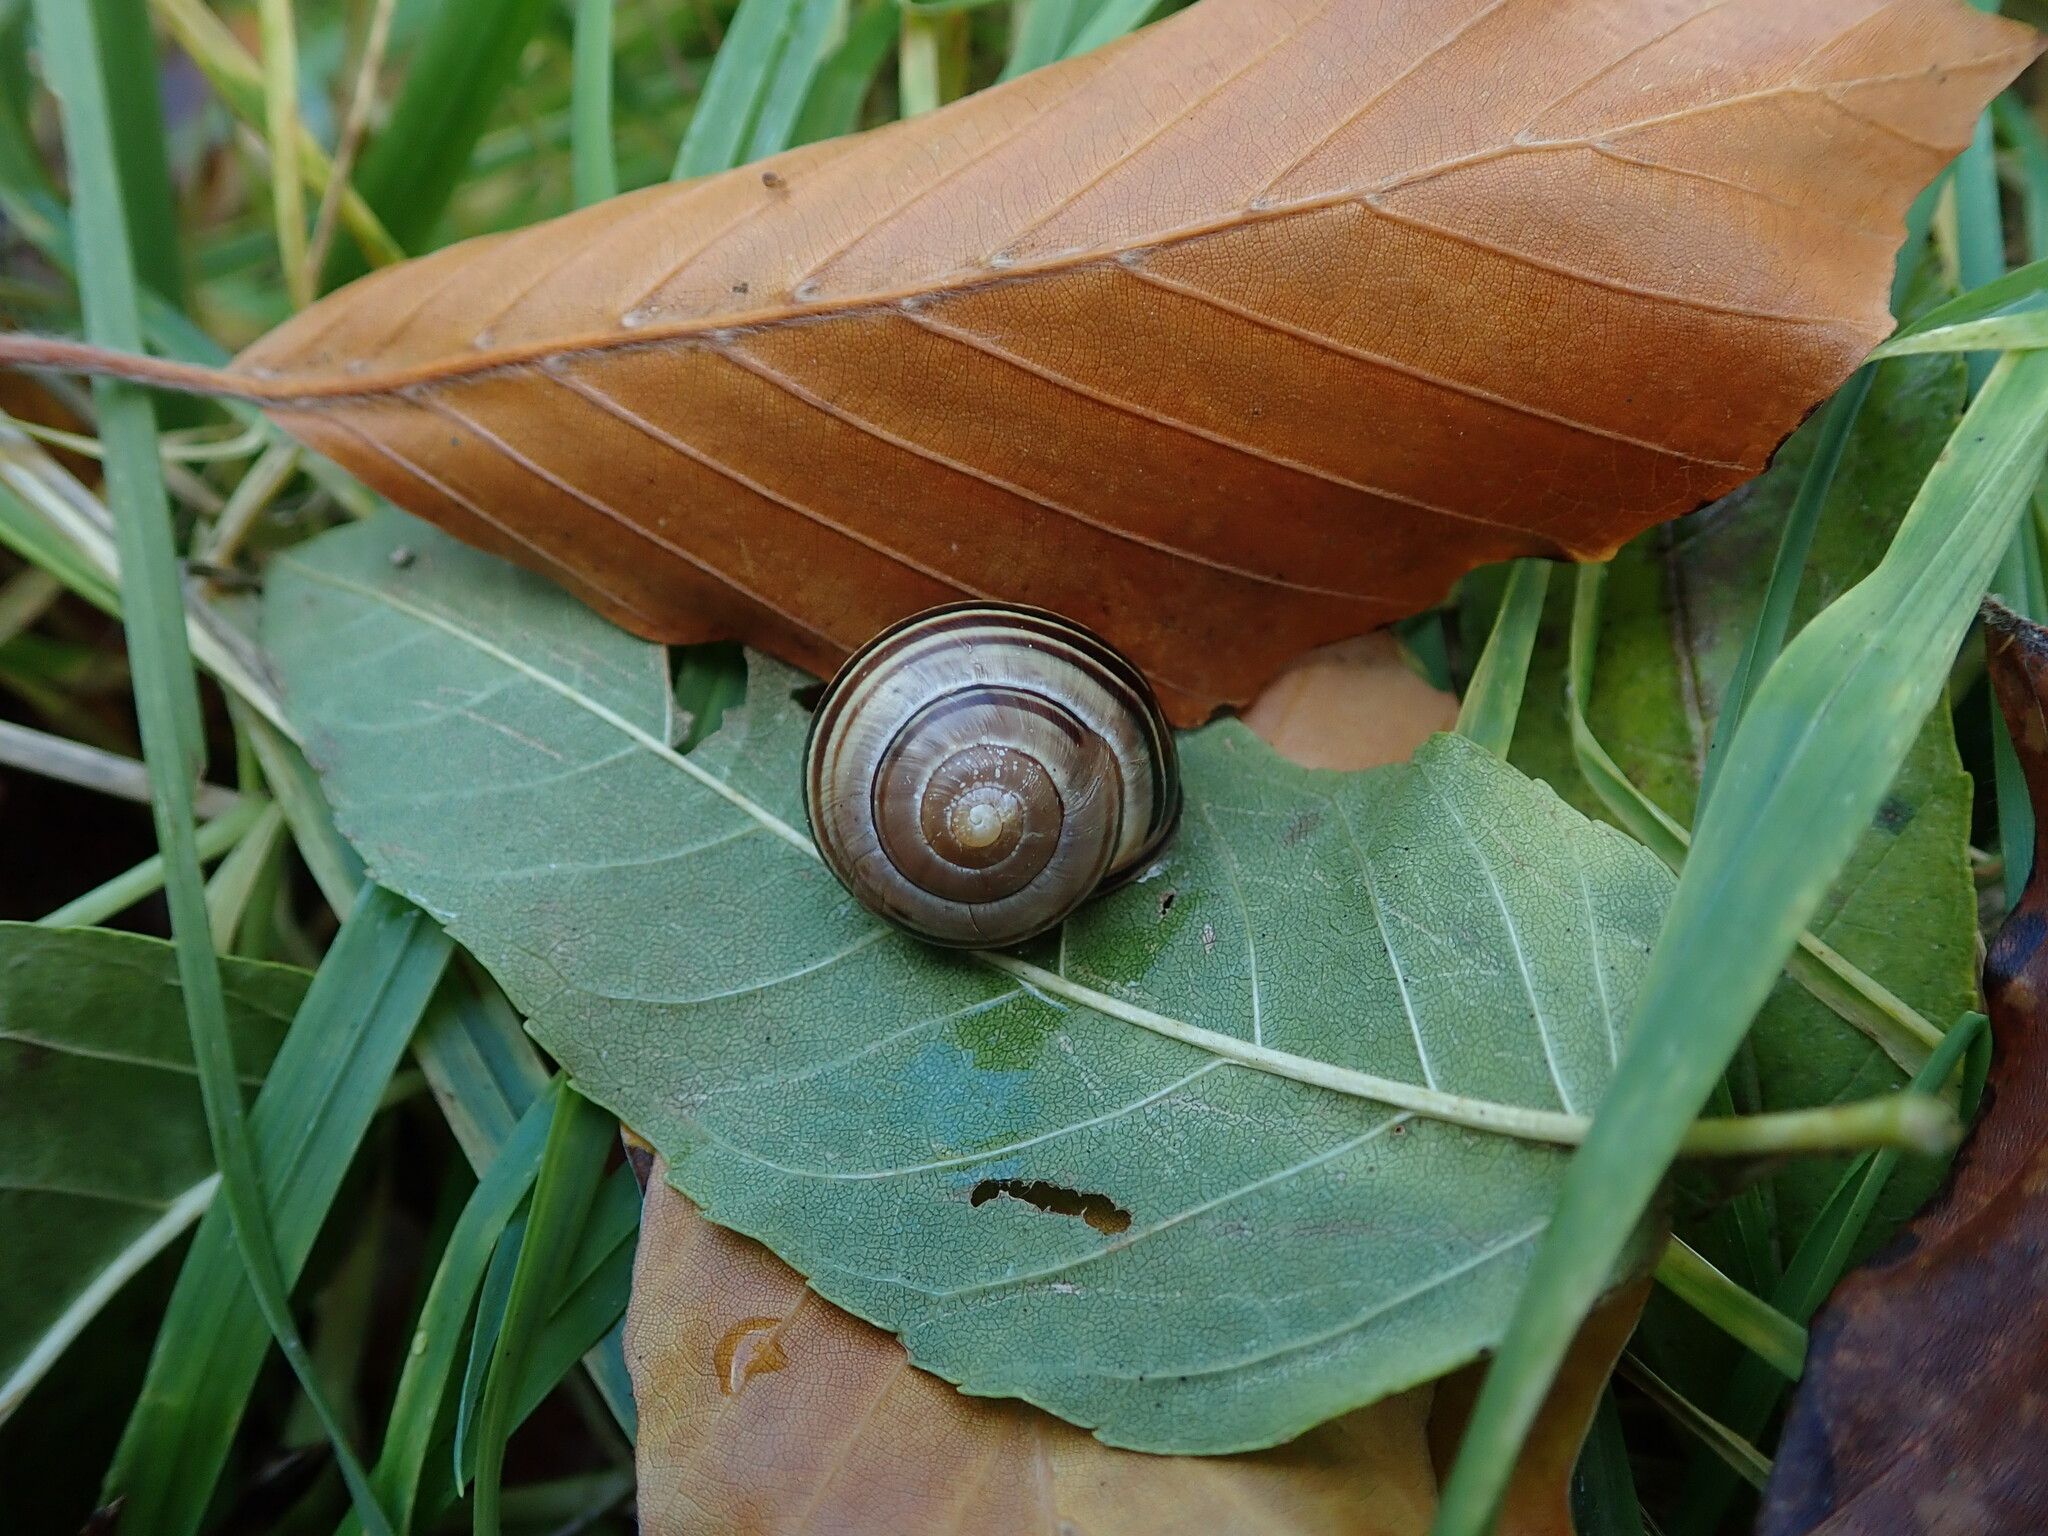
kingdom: Animalia
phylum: Mollusca
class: Gastropoda
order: Stylommatophora
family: Helicidae
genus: Cepaea
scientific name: Cepaea nemoralis
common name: Grovesnail
